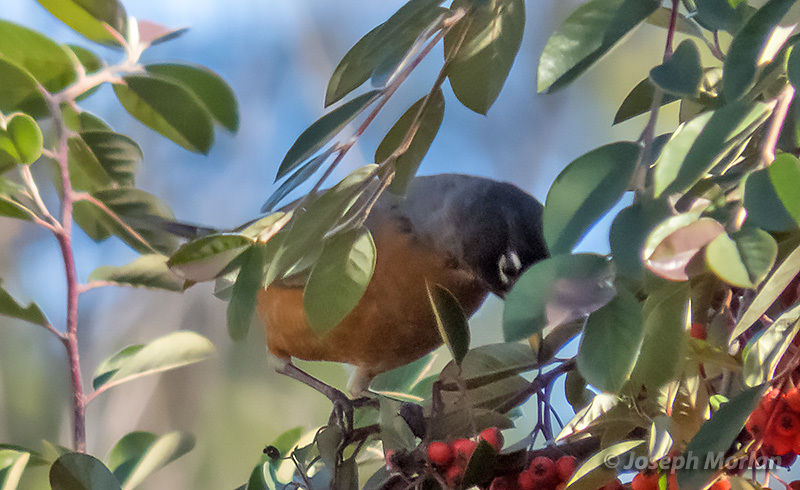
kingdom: Animalia
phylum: Chordata
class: Aves
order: Passeriformes
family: Turdidae
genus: Turdus
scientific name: Turdus migratorius
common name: American robin
